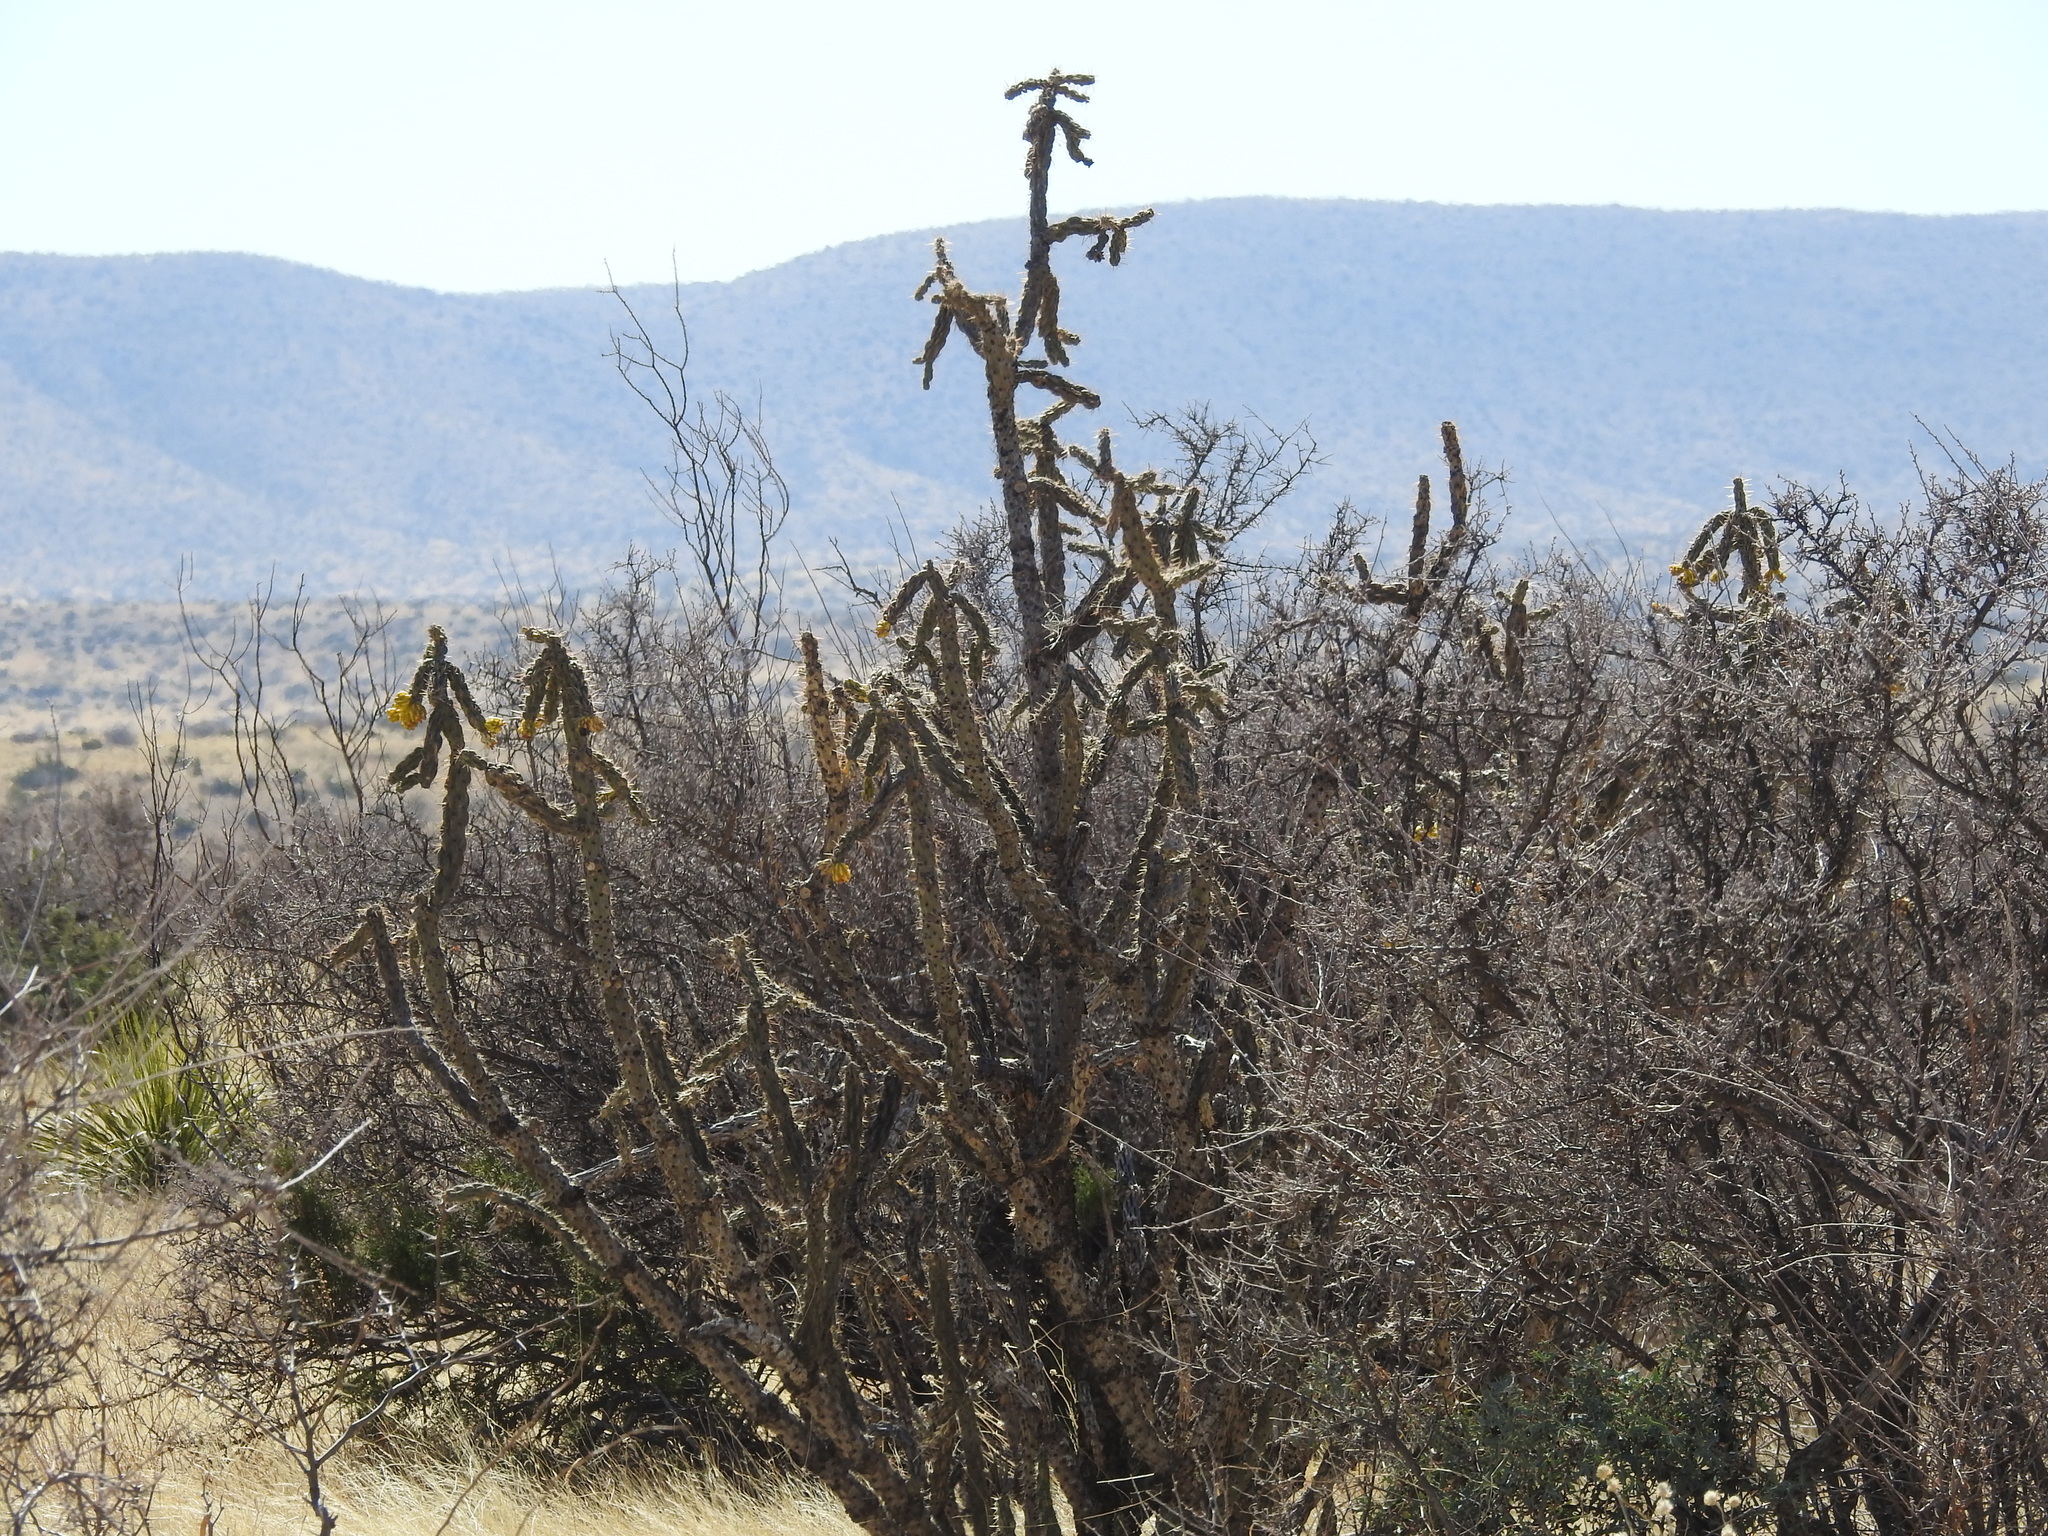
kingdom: Plantae
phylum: Tracheophyta
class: Magnoliopsida
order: Caryophyllales
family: Cactaceae
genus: Cylindropuntia
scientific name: Cylindropuntia imbricata
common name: Candelabrum cactus
